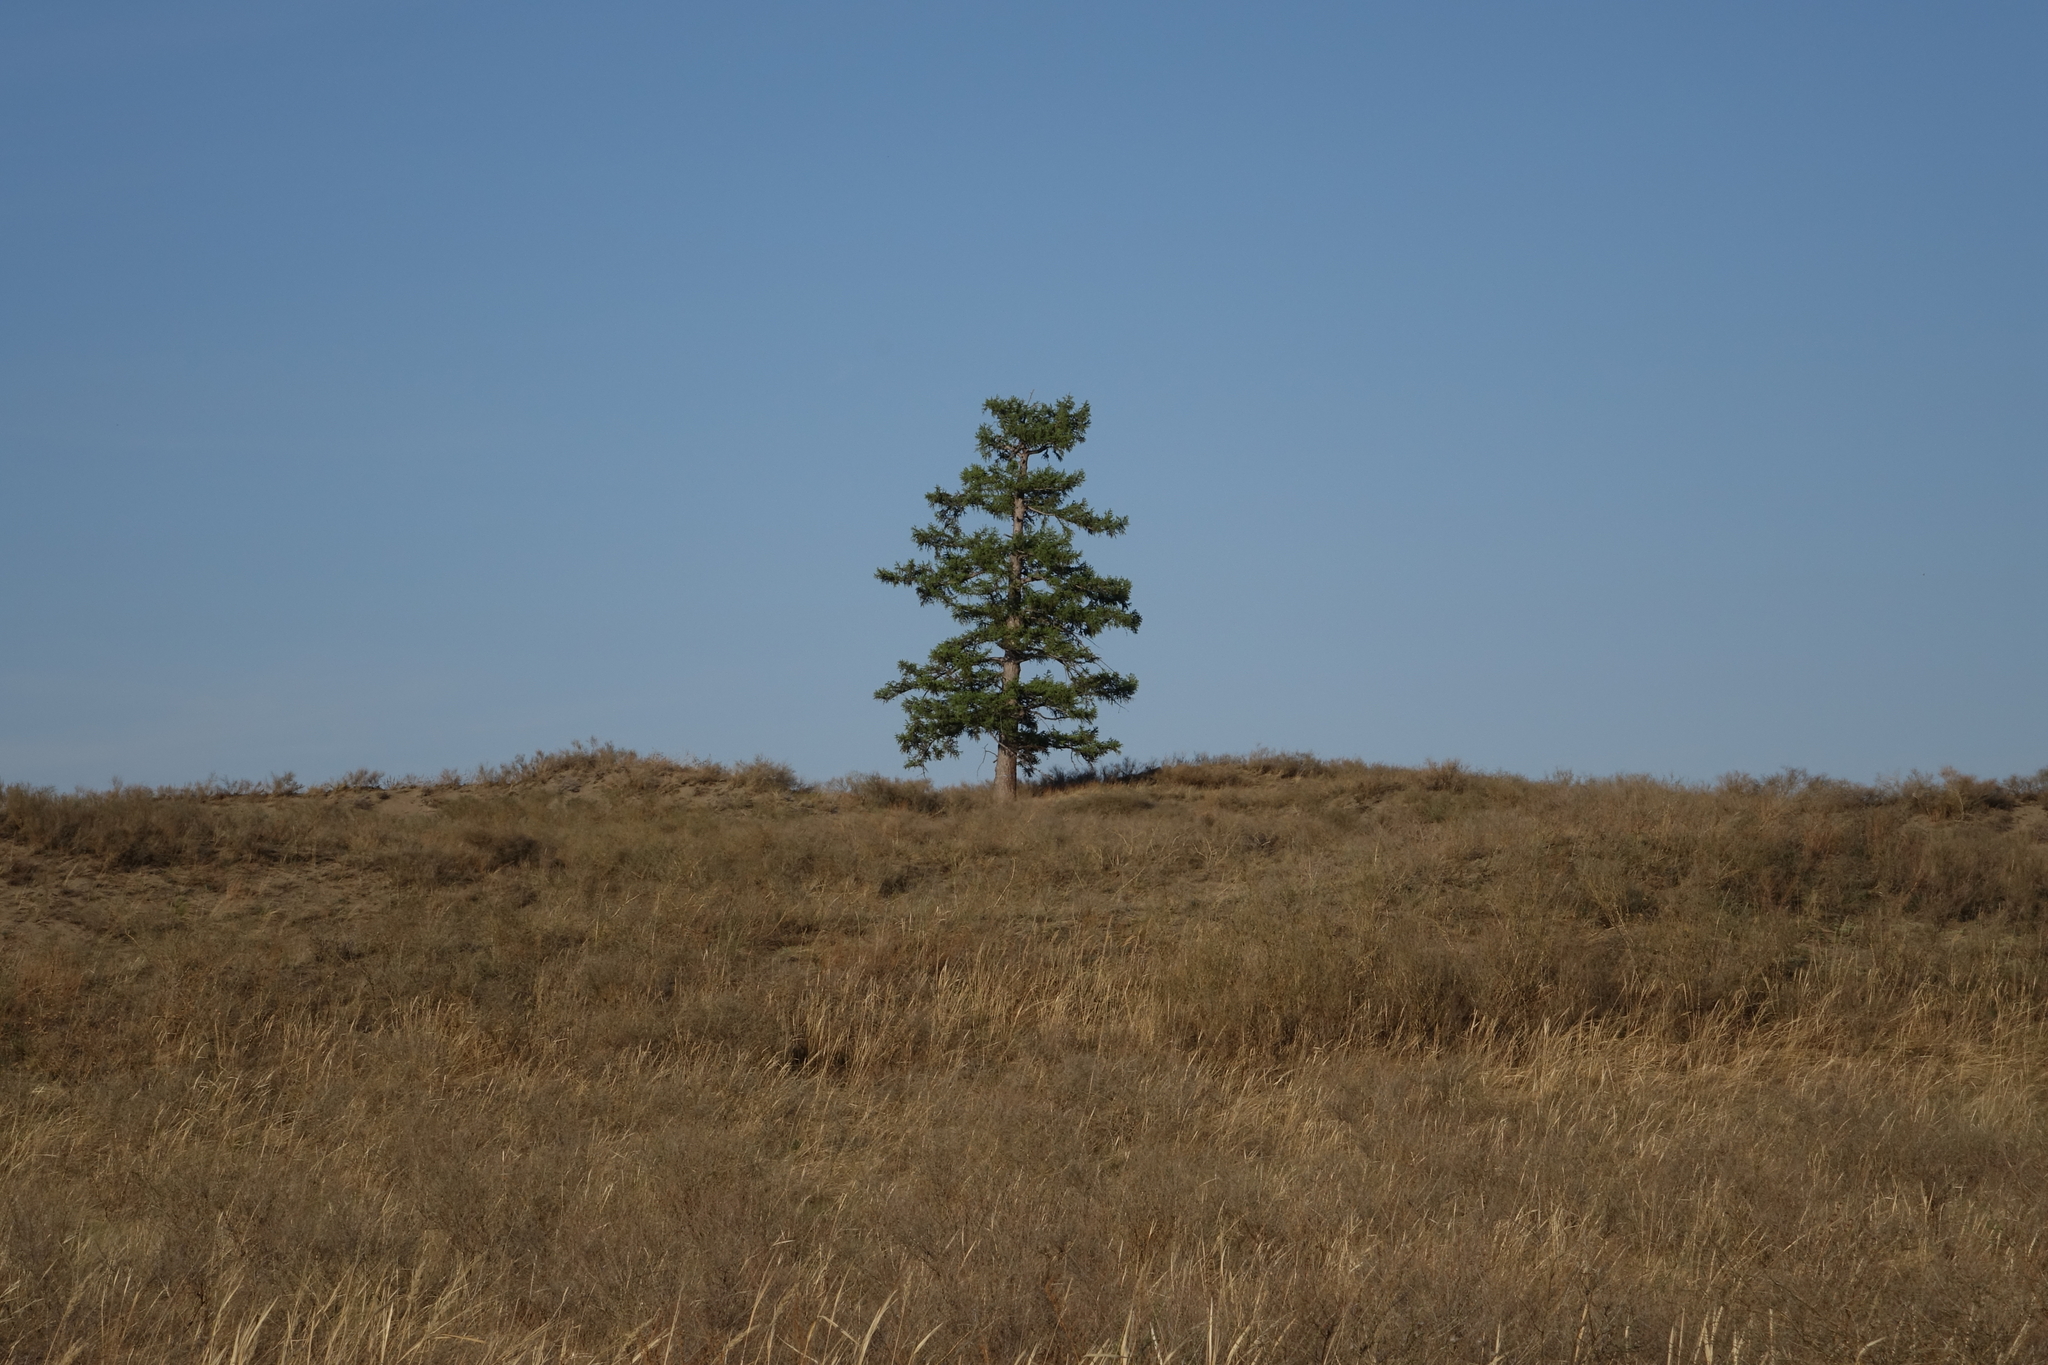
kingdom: Plantae
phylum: Tracheophyta
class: Pinopsida
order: Pinales
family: Pinaceae
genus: Larix
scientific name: Larix sibirica
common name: Siberian larch
